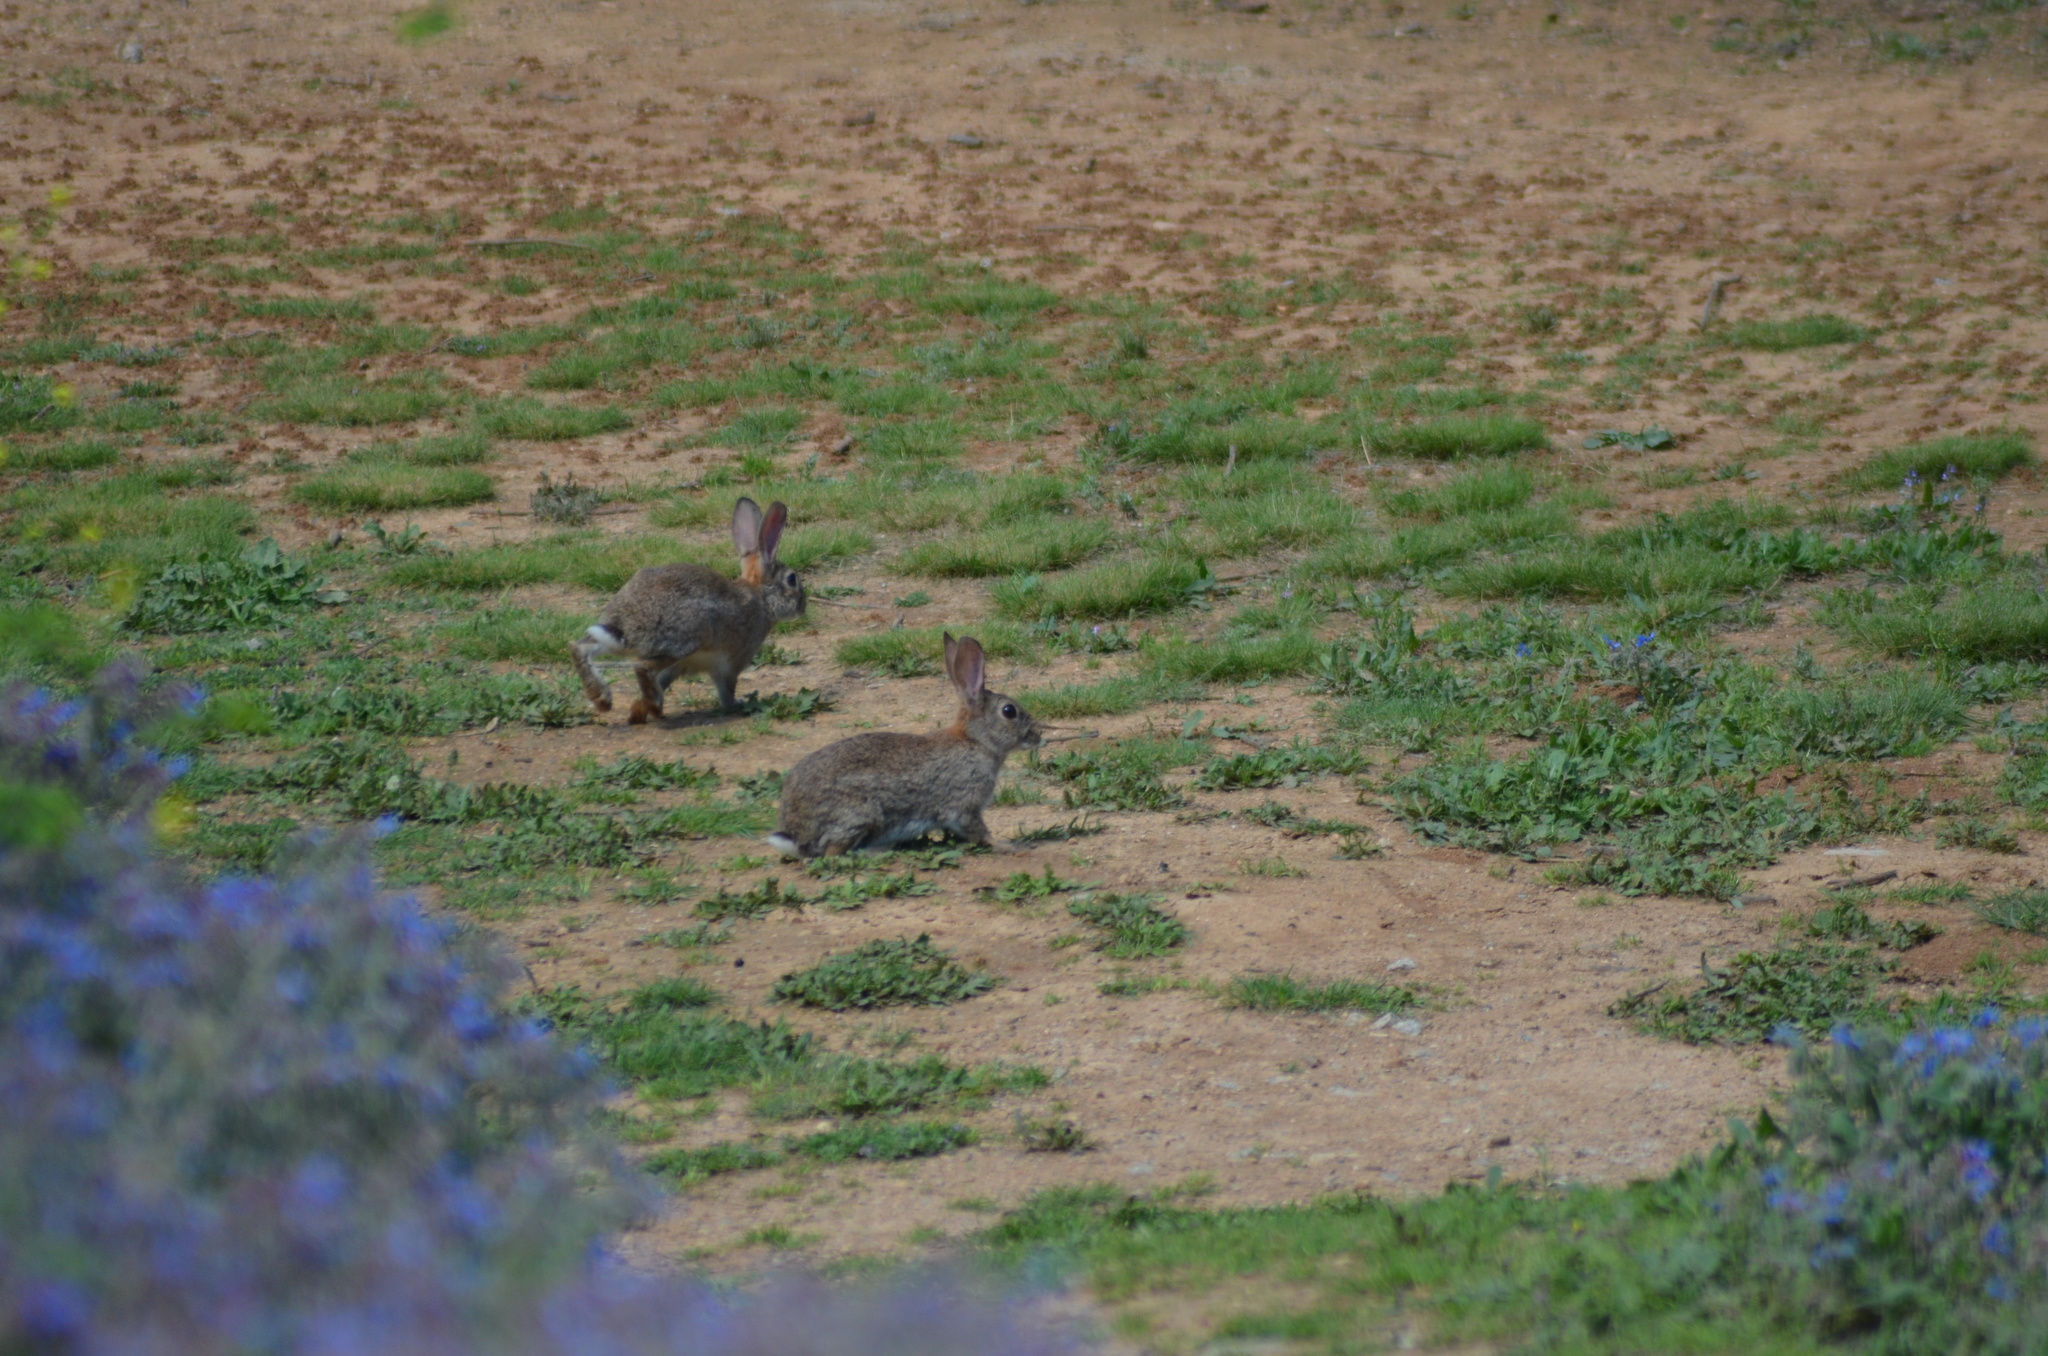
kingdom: Animalia
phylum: Chordata
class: Mammalia
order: Lagomorpha
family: Leporidae
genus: Oryctolagus
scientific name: Oryctolagus cuniculus
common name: European rabbit
